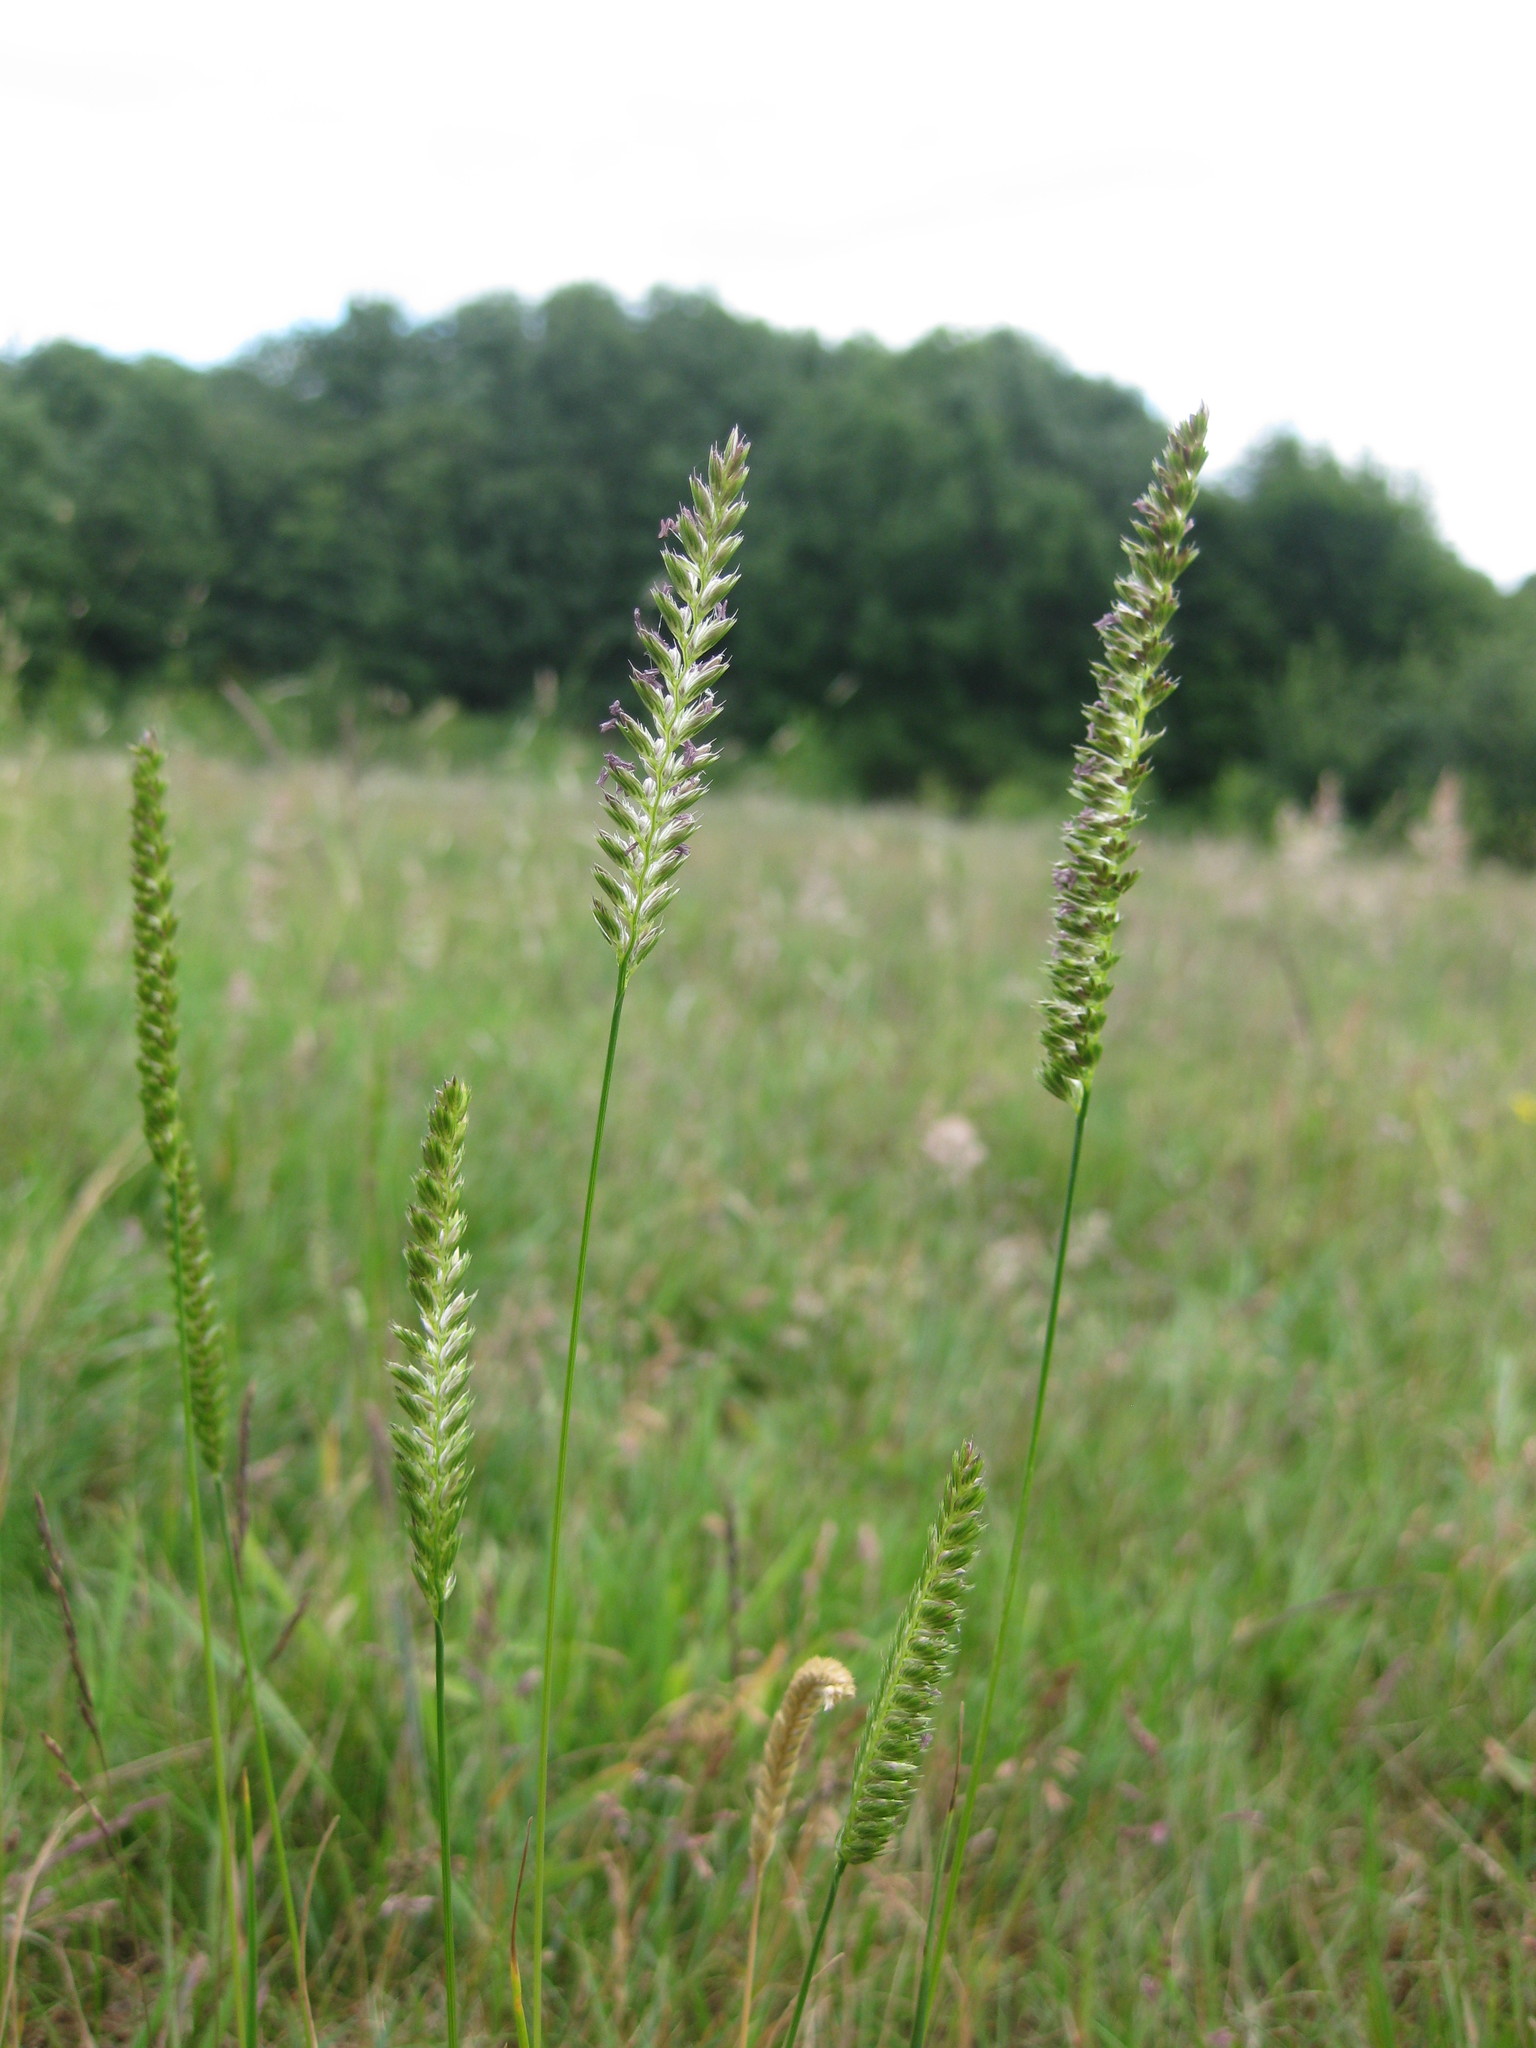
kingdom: Plantae
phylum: Tracheophyta
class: Liliopsida
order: Poales
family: Poaceae
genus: Cynosurus
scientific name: Cynosurus cristatus
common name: Crested dog's-tail
